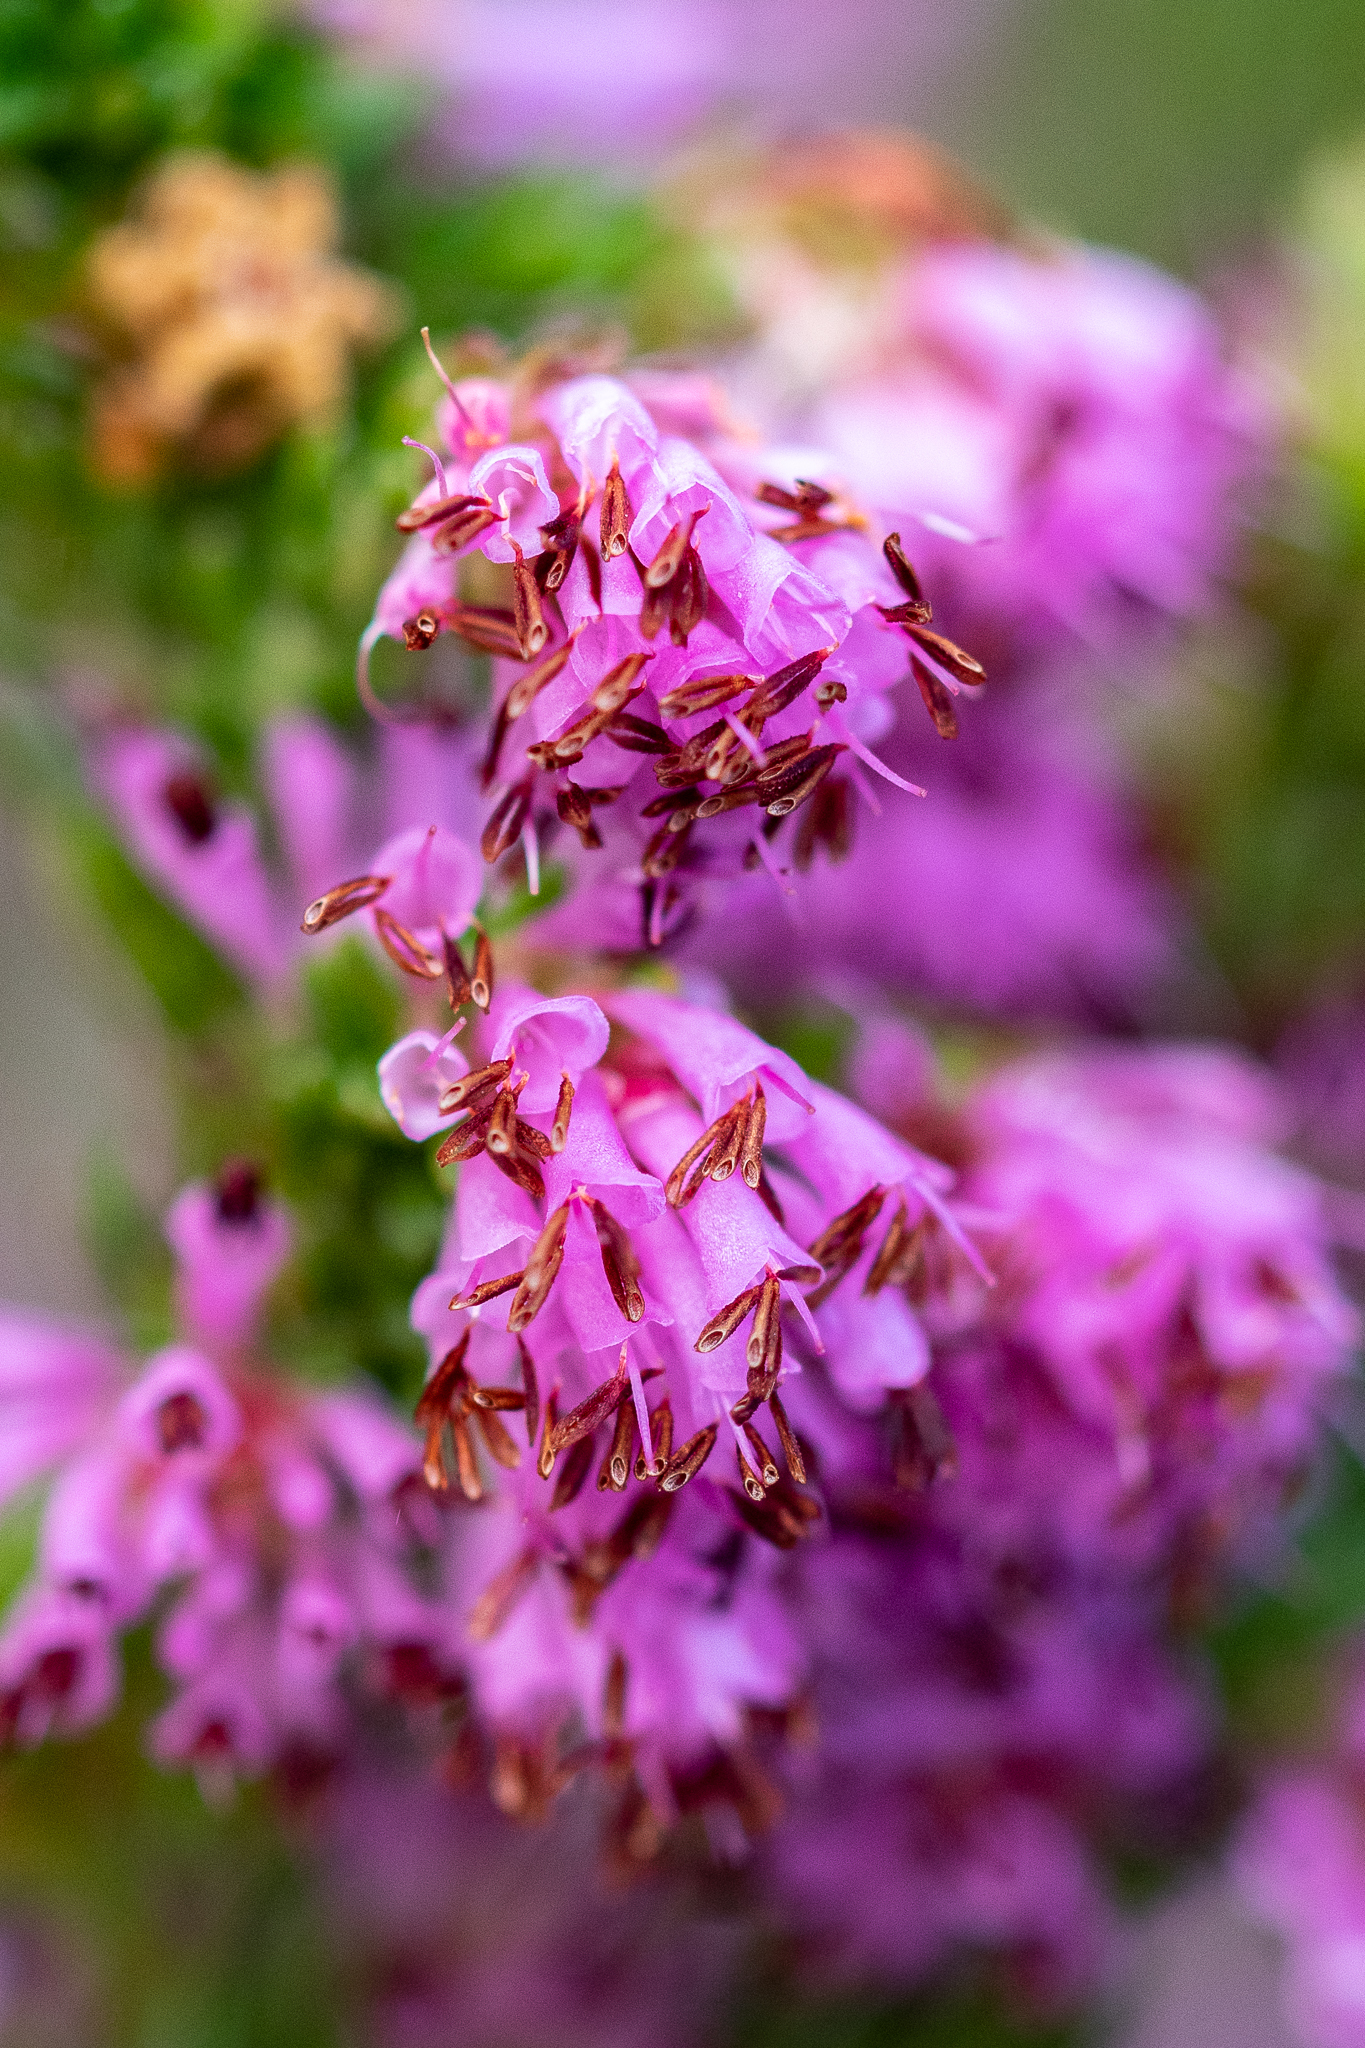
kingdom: Plantae
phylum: Tracheophyta
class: Magnoliopsida
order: Ericales
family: Ericaceae
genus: Erica
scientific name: Erica labialis
